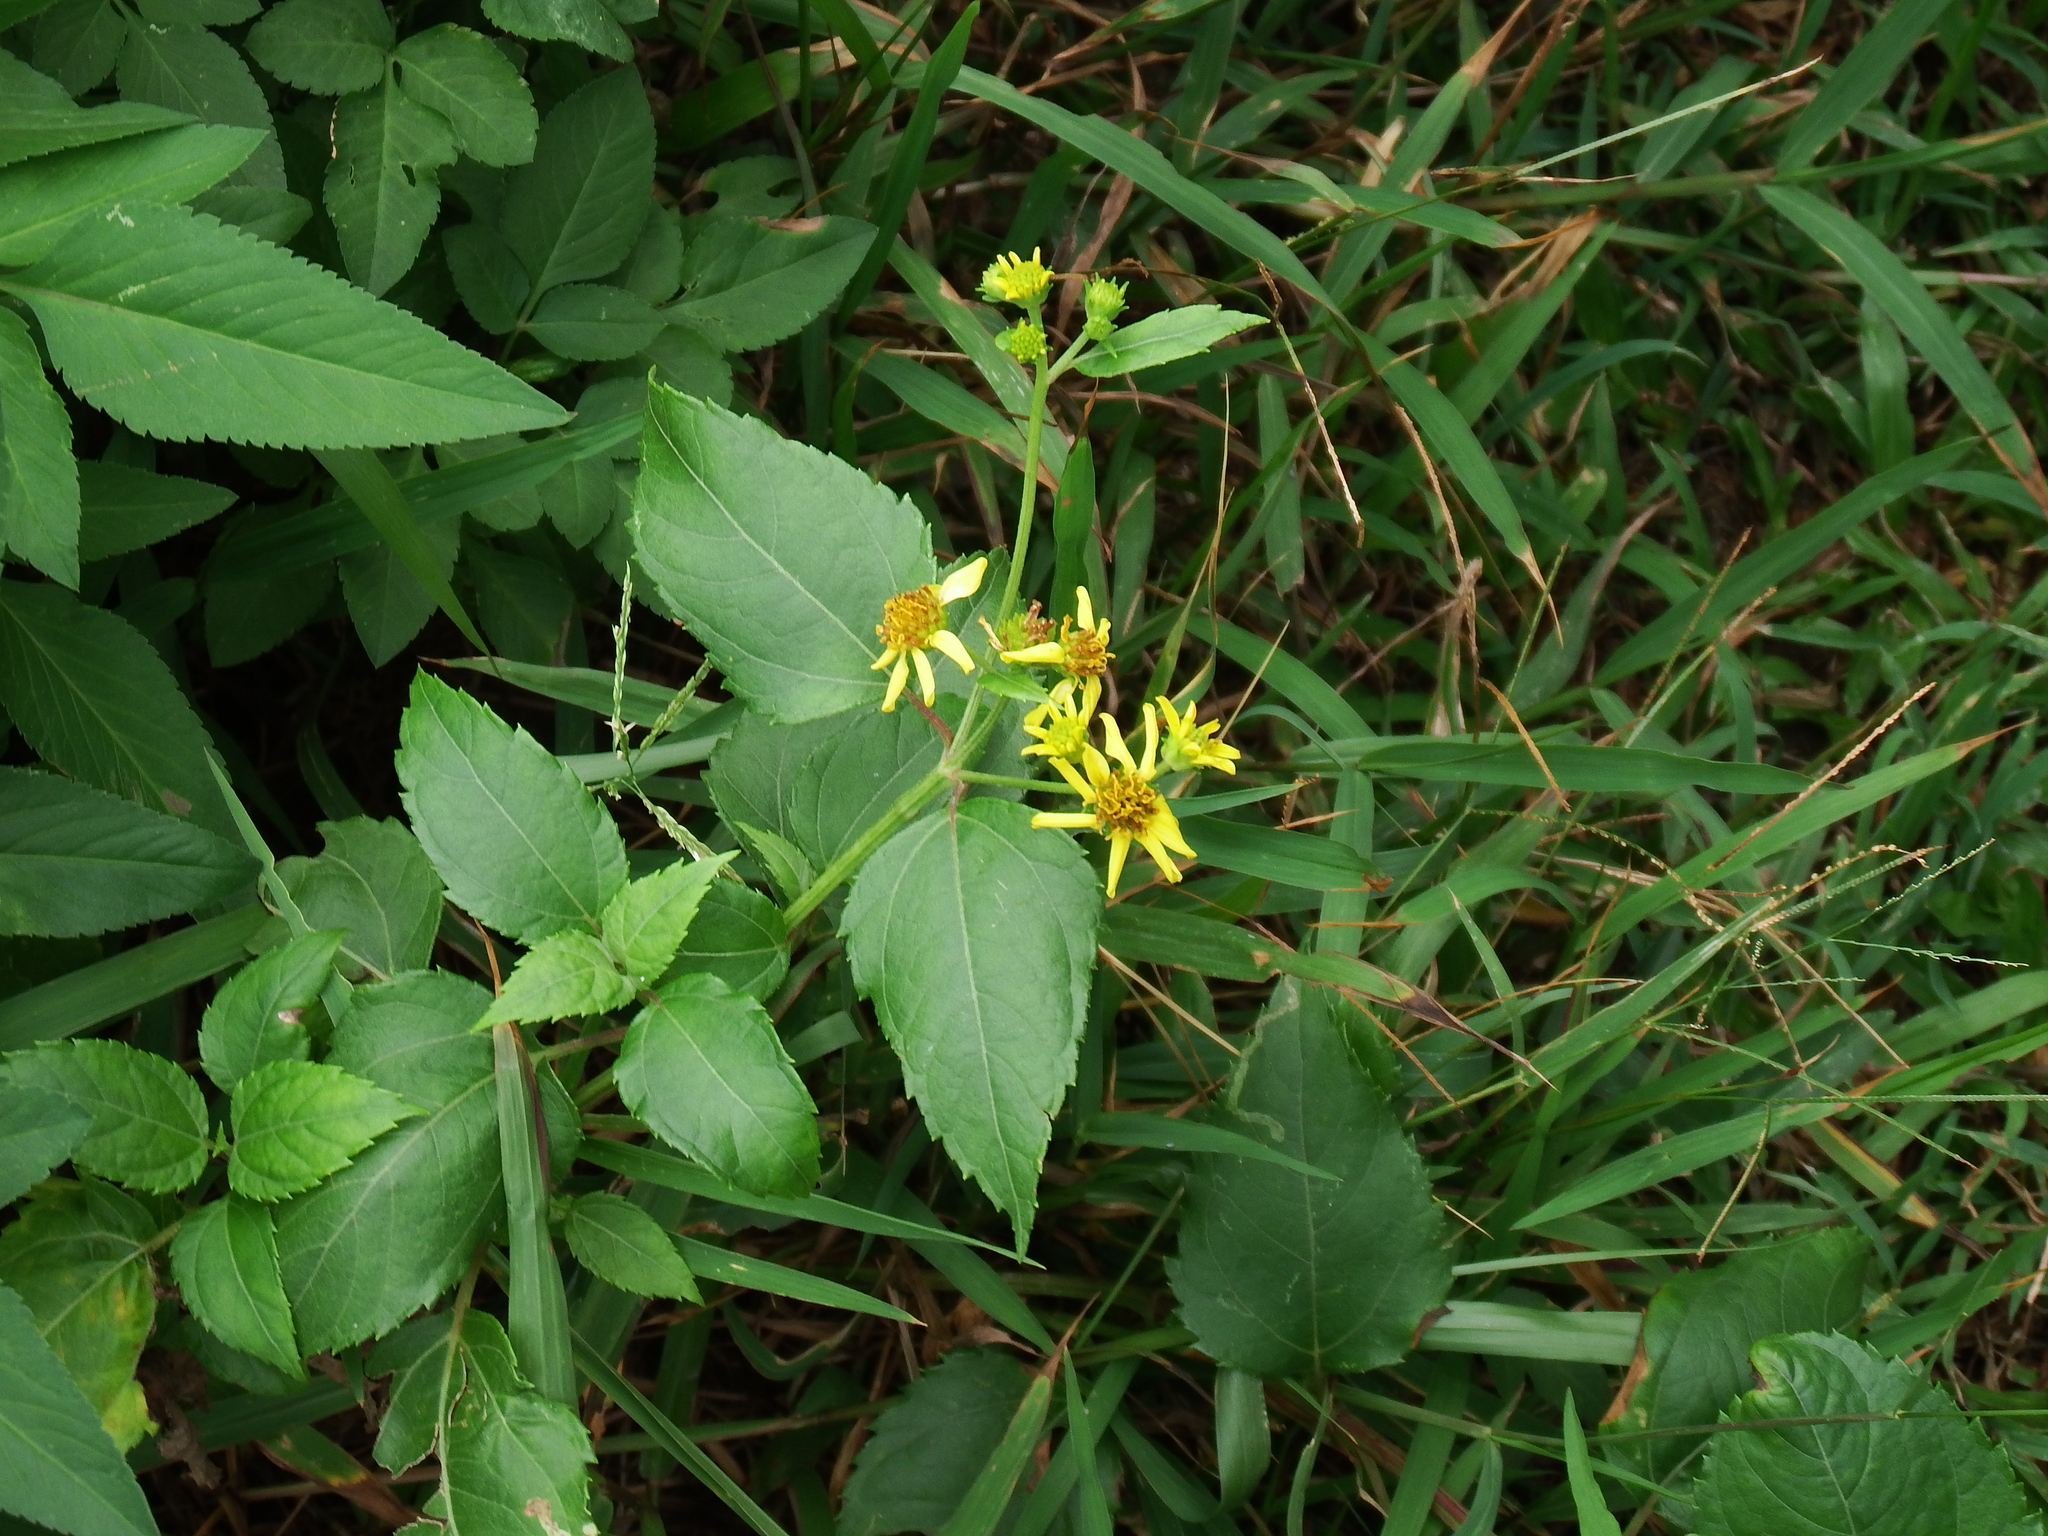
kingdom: Plantae
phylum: Tracheophyta
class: Magnoliopsida
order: Asterales
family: Asteraceae
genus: Wollastonia
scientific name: Wollastonia biflora
